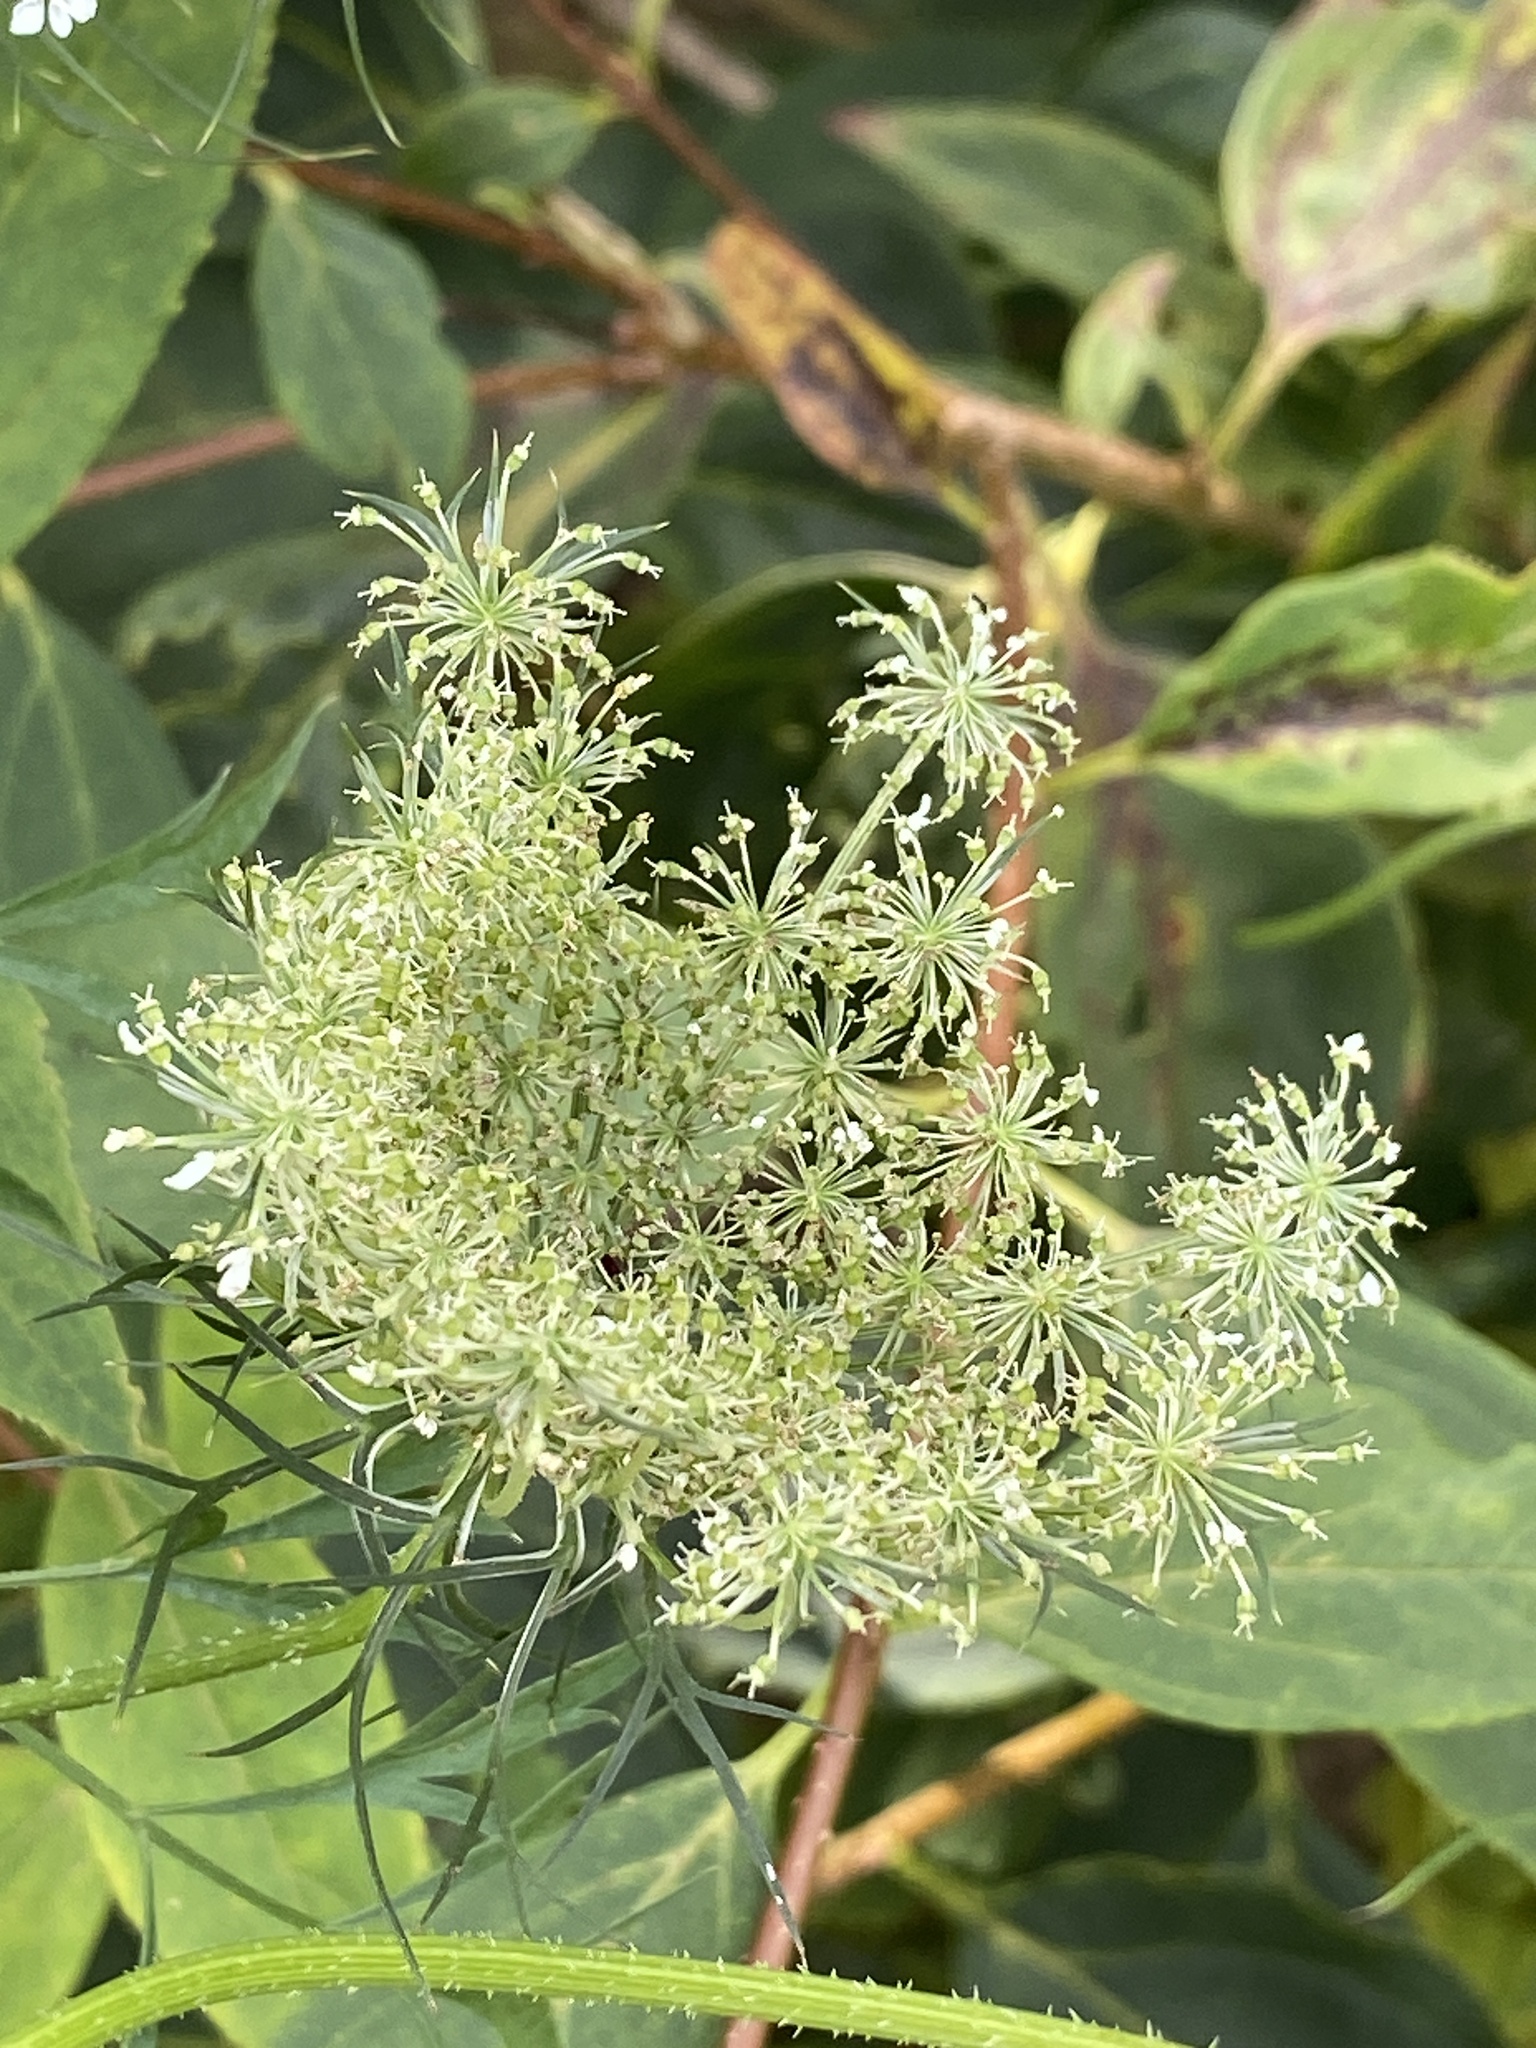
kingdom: Plantae
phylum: Tracheophyta
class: Magnoliopsida
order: Apiales
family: Apiaceae
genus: Daucus
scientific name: Daucus carota
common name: Wild carrot
